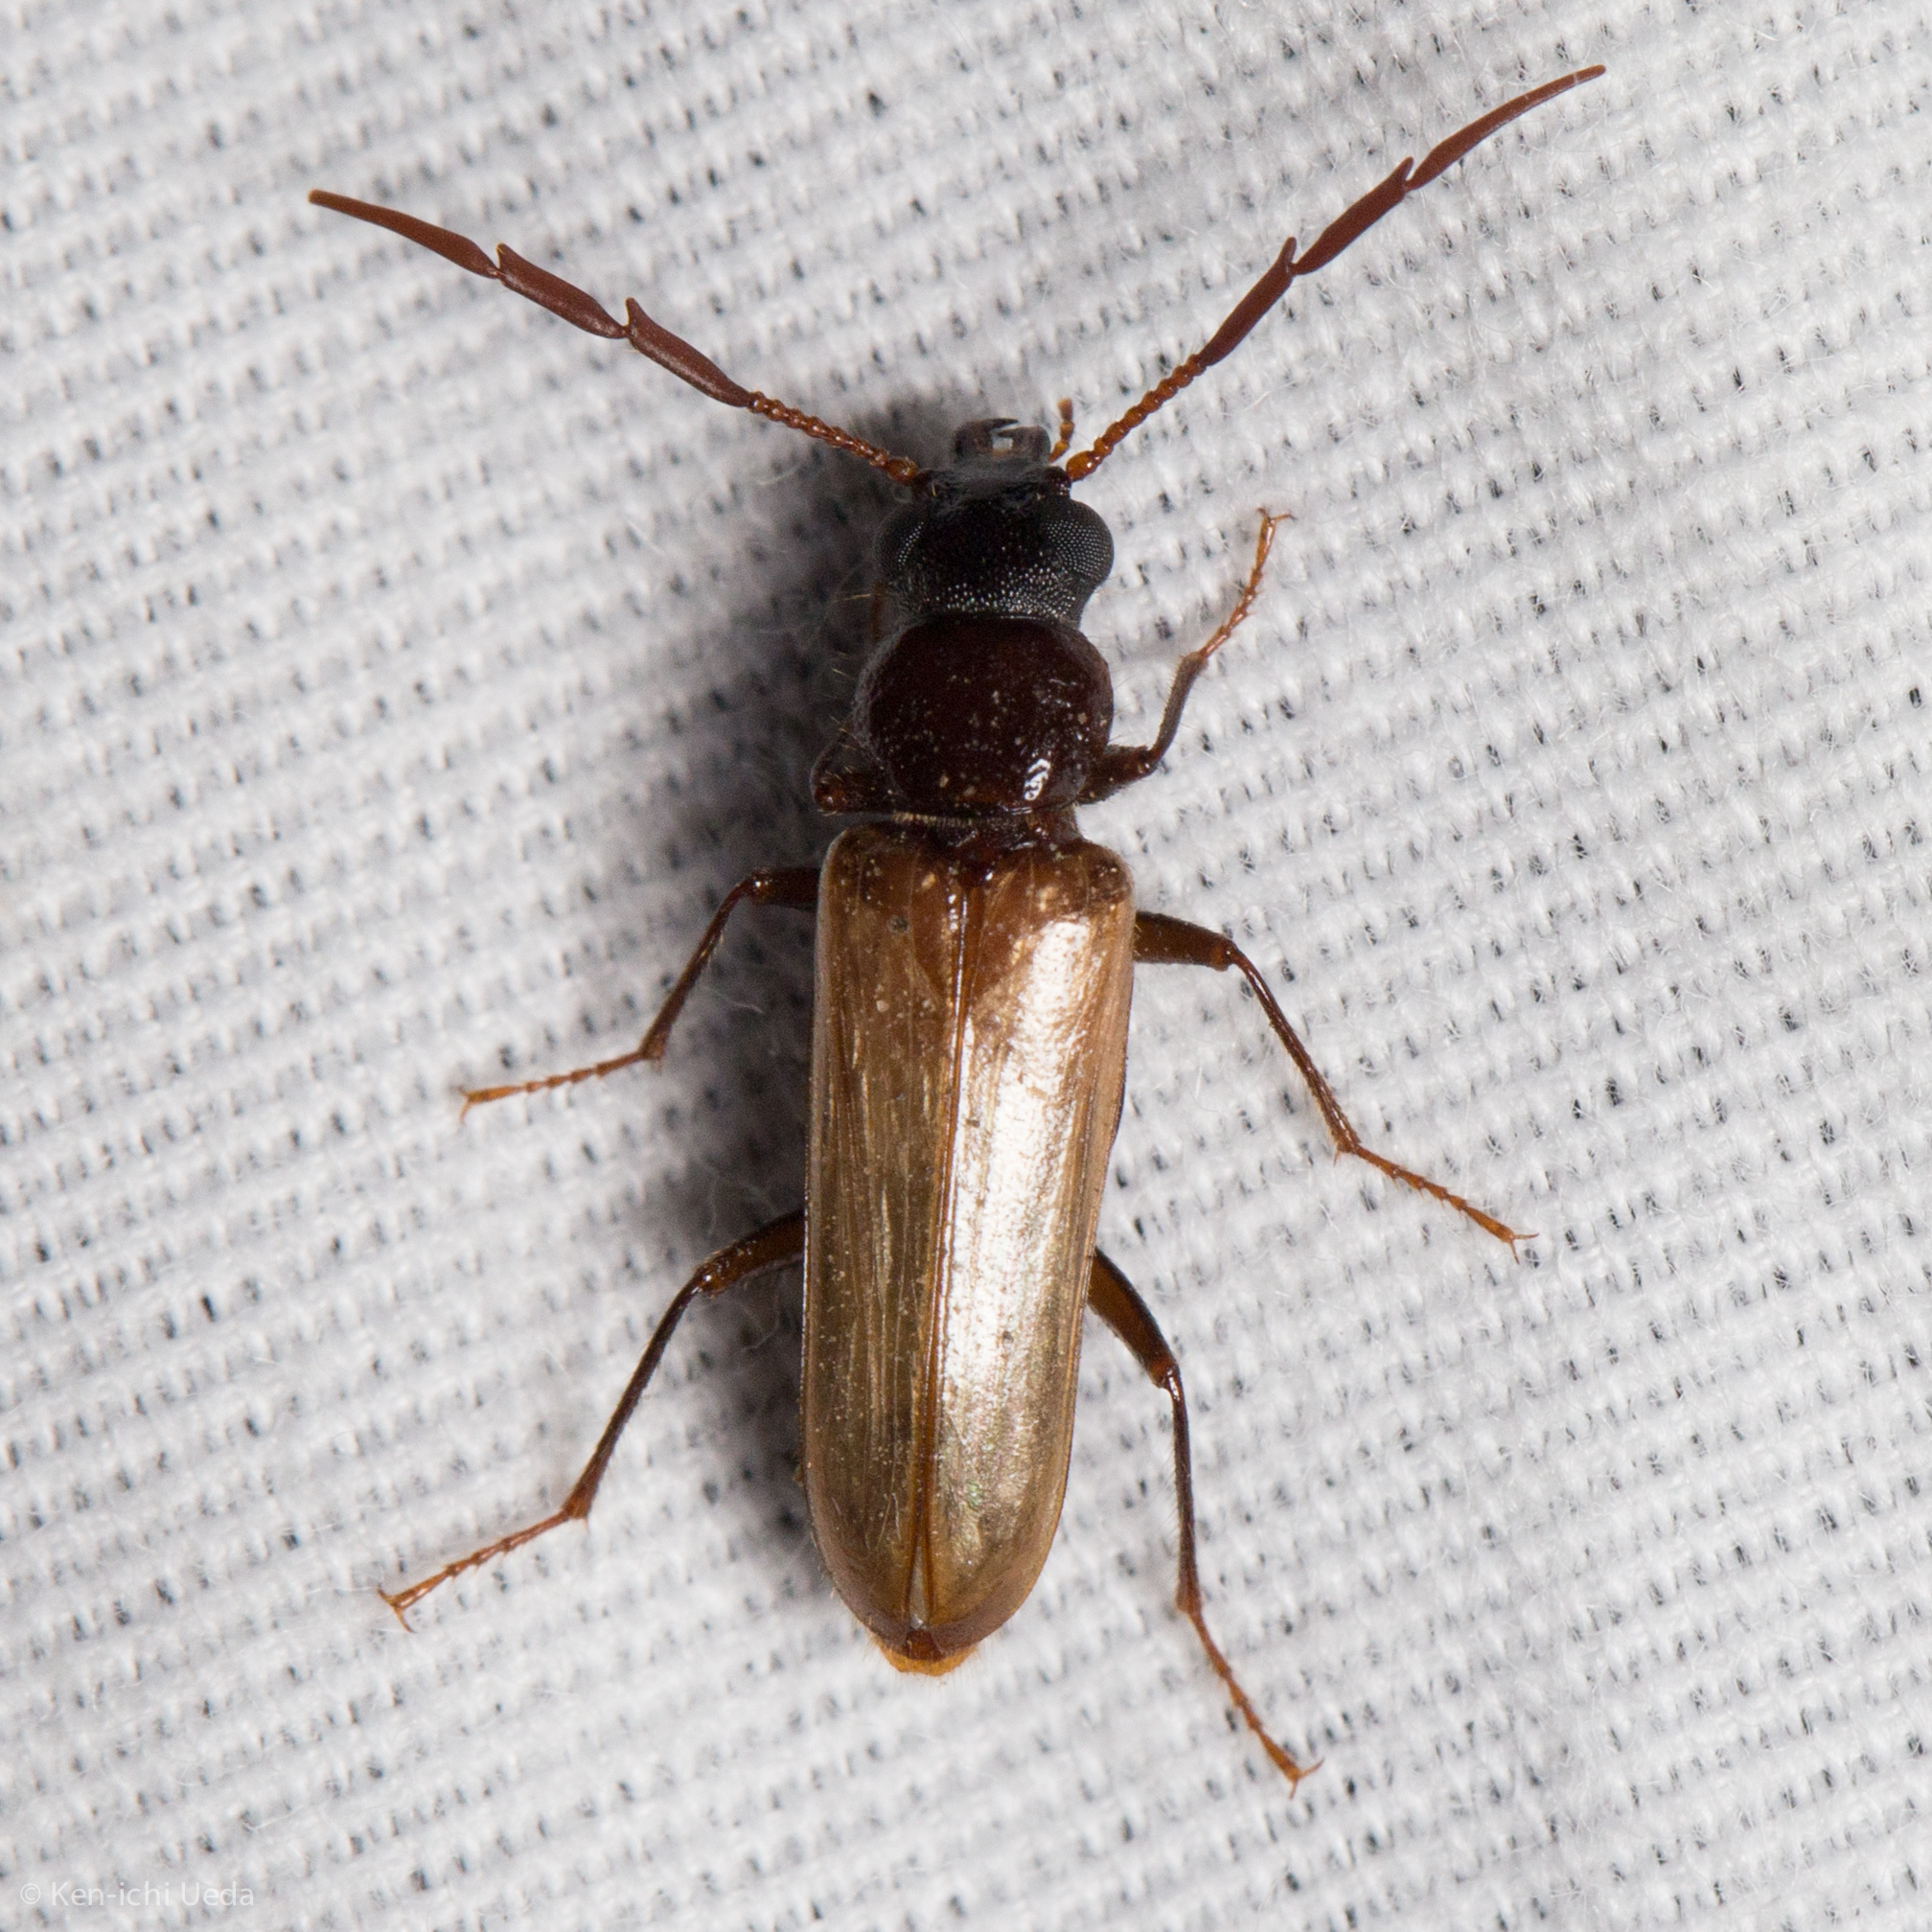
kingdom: Animalia
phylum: Arthropoda
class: Insecta
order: Coleoptera
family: Pythidae
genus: Trimitomerus
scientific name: Trimitomerus riversii
